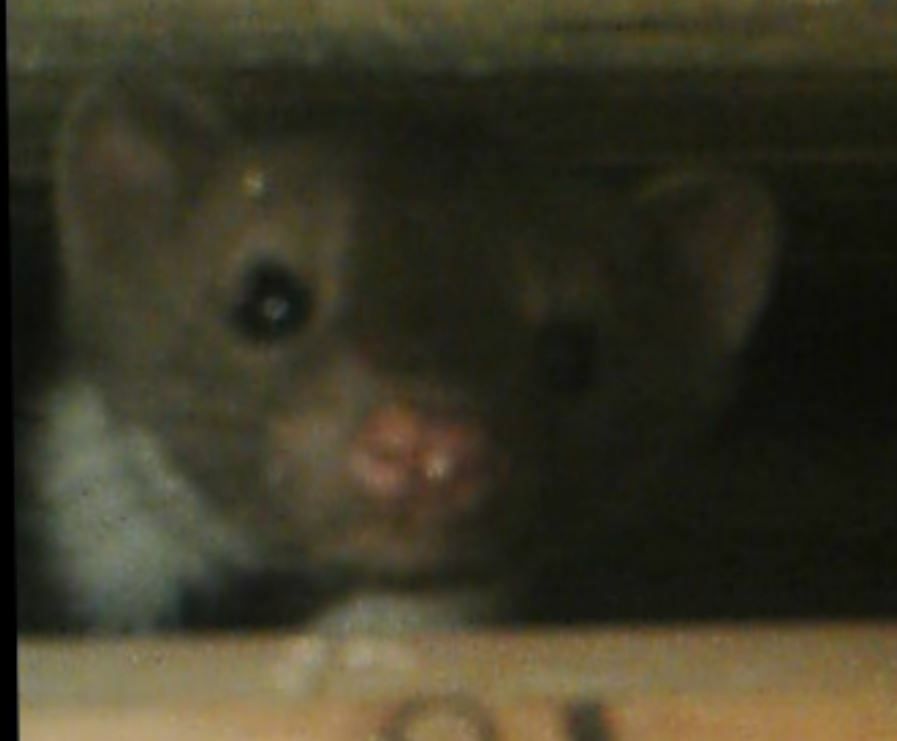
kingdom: Animalia
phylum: Chordata
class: Mammalia
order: Carnivora
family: Mustelidae
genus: Martes
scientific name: Martes foina
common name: Beech marten
